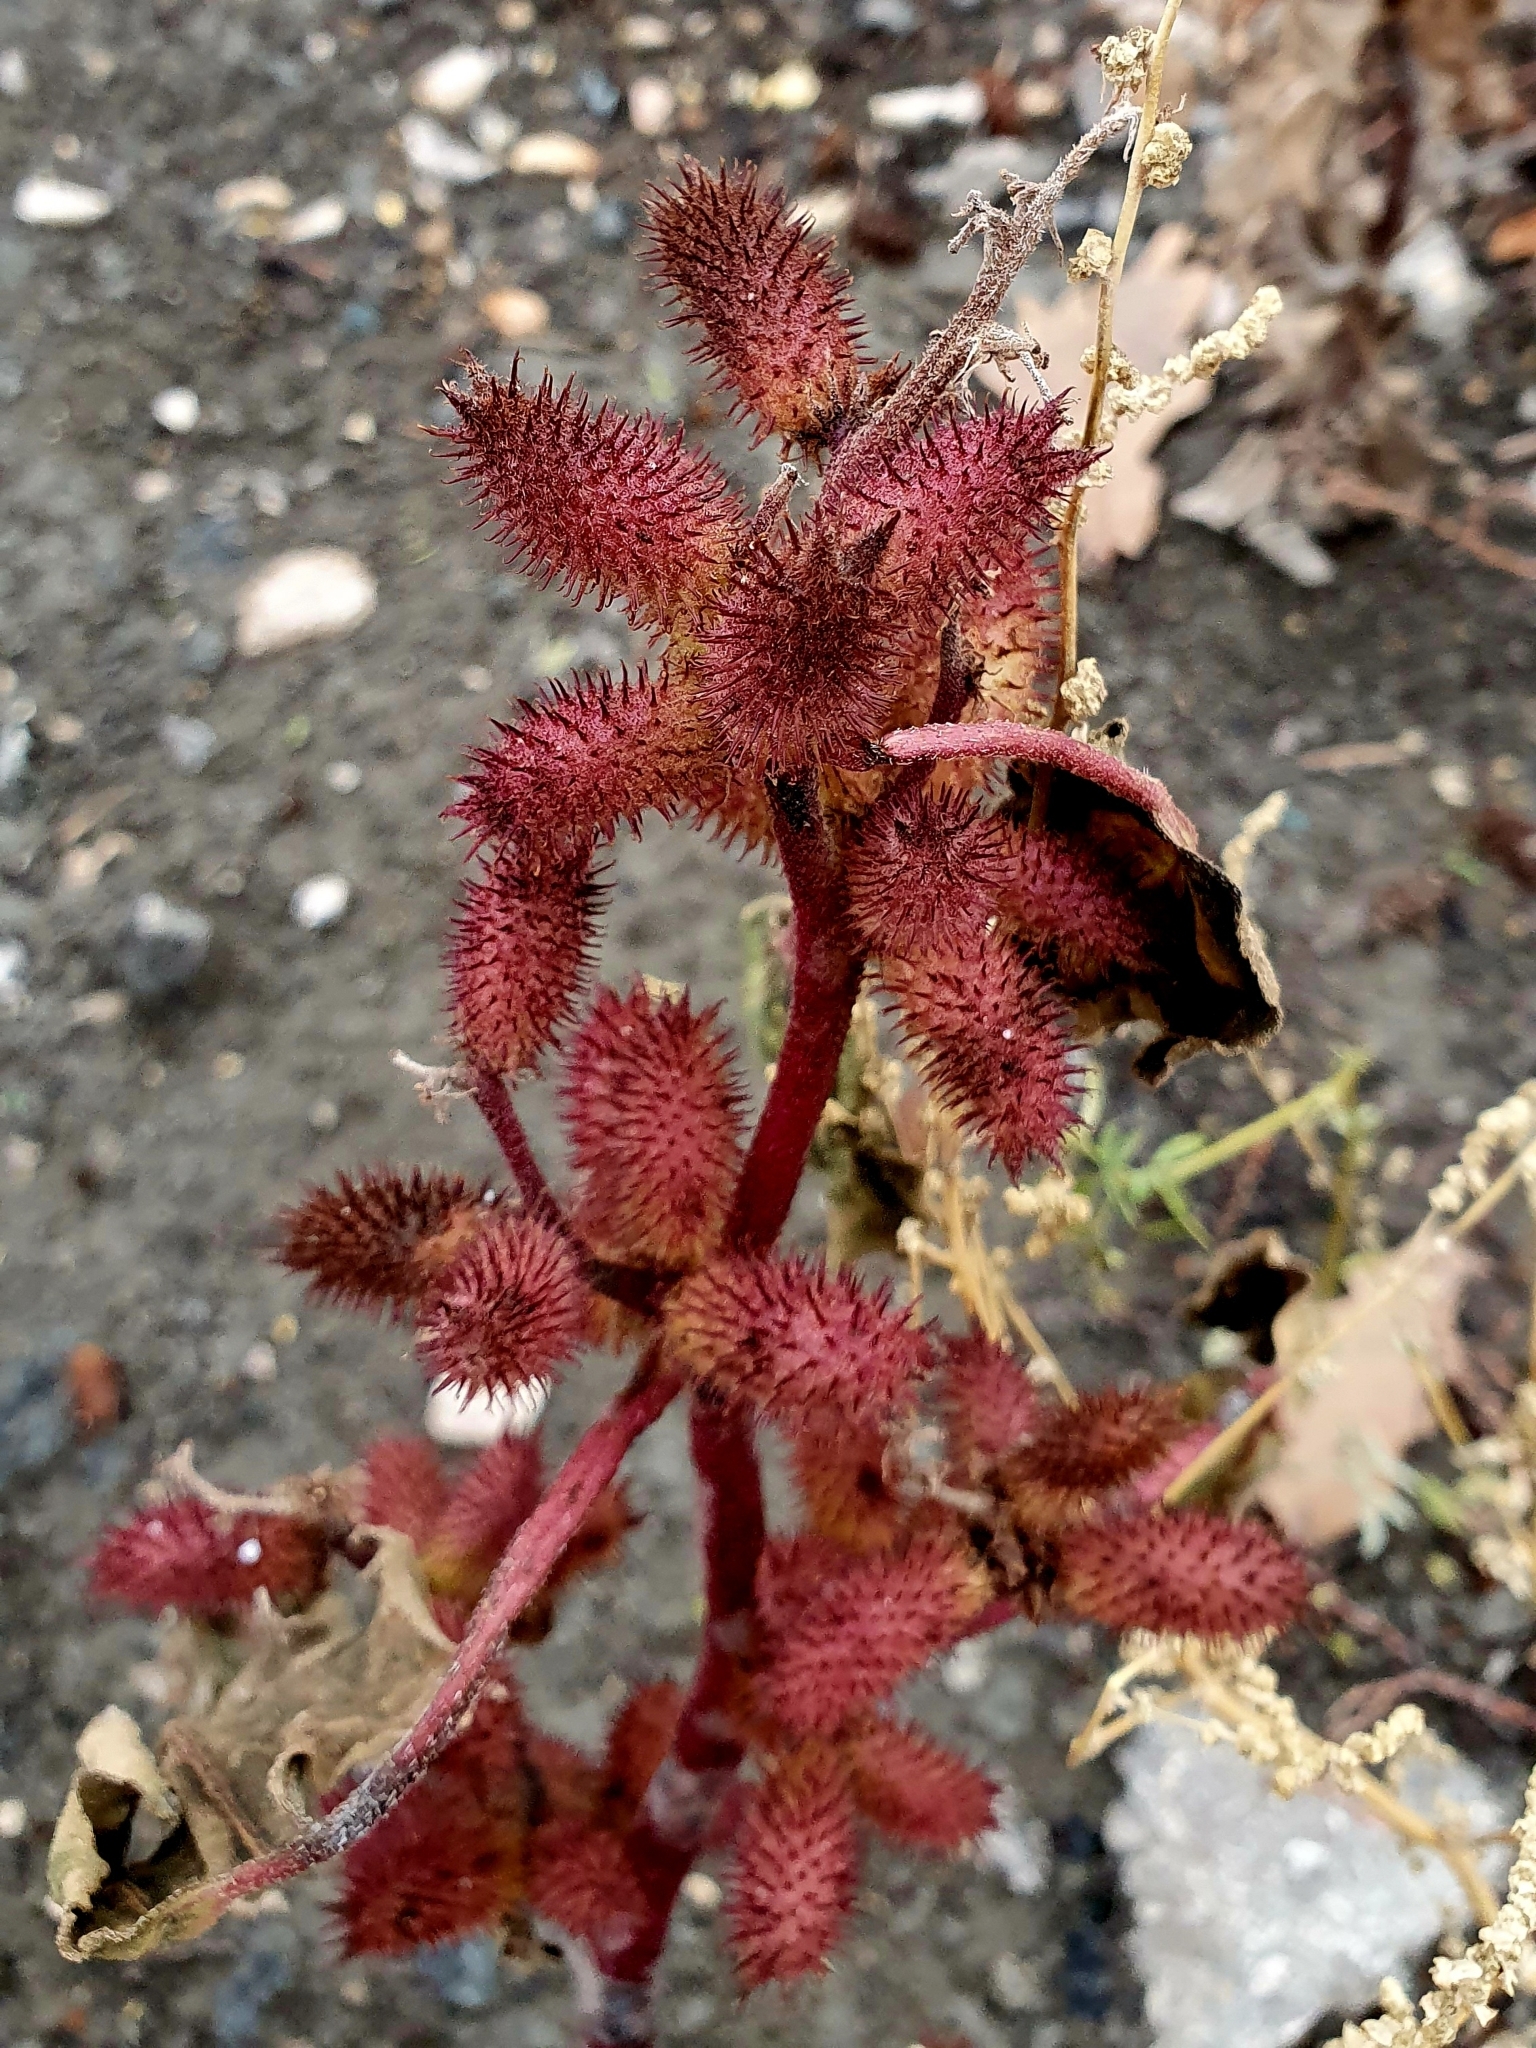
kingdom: Plantae
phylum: Tracheophyta
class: Magnoliopsida
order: Asterales
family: Asteraceae
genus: Xanthium
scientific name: Xanthium orientale
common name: Californian burr
